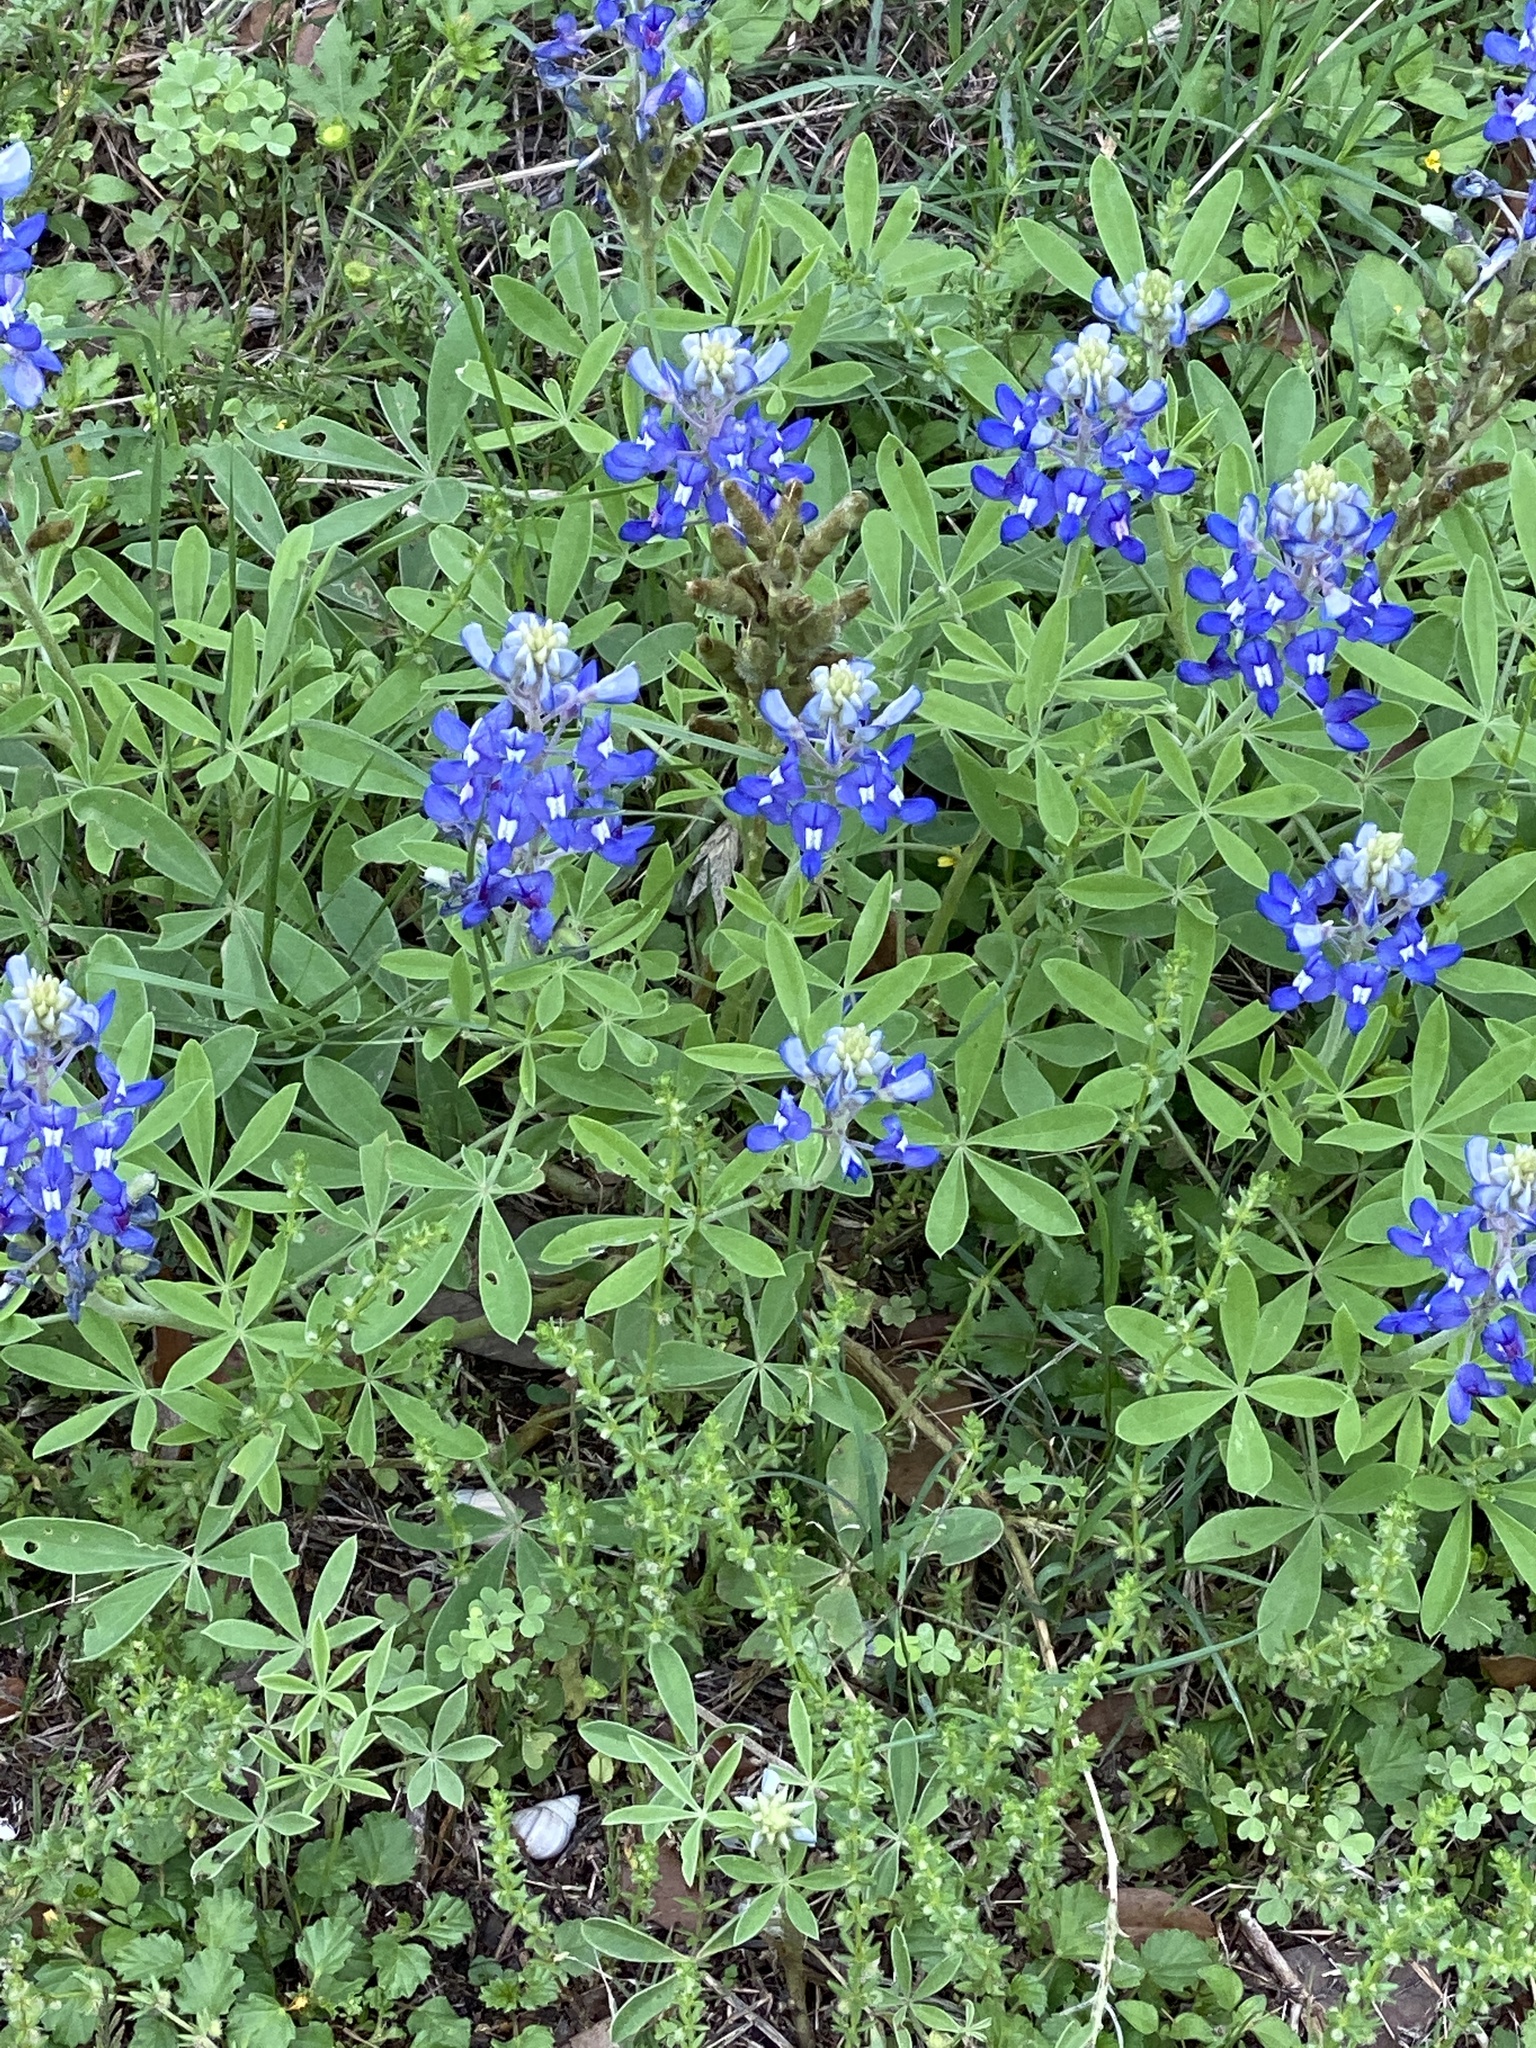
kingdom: Plantae
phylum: Tracheophyta
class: Magnoliopsida
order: Fabales
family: Fabaceae
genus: Lupinus
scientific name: Lupinus texensis
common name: Texas bluebonnet
